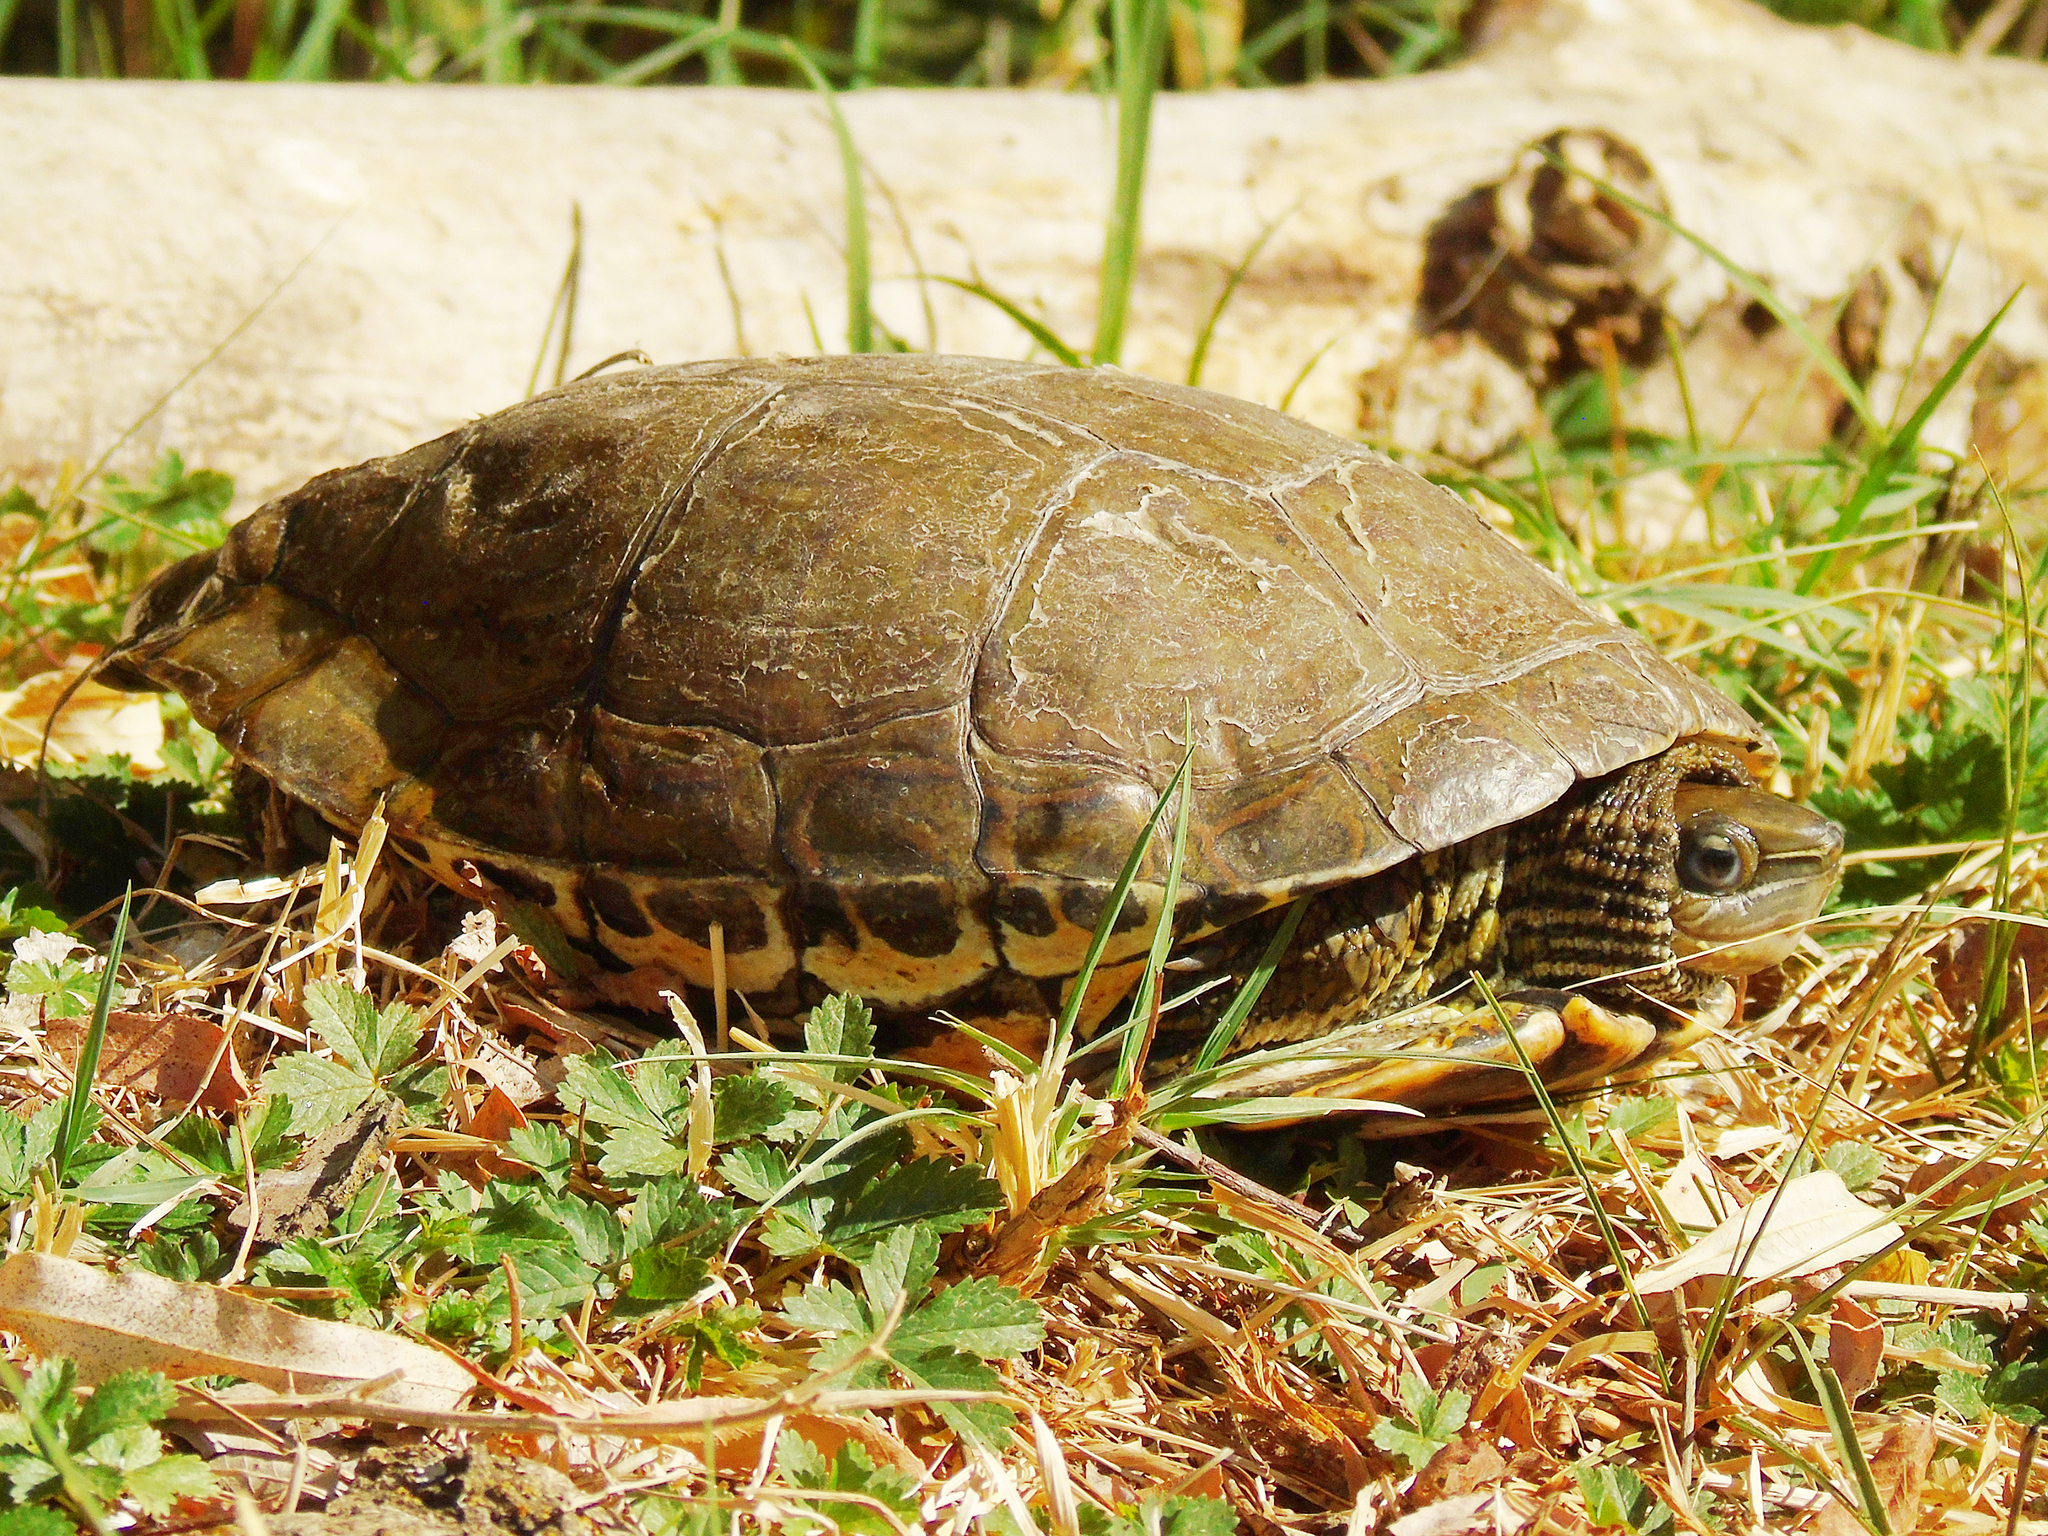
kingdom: Animalia
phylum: Chordata
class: Testudines
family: Geoemydidae
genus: Mauremys
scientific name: Mauremys caspica
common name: Caspian turtle
